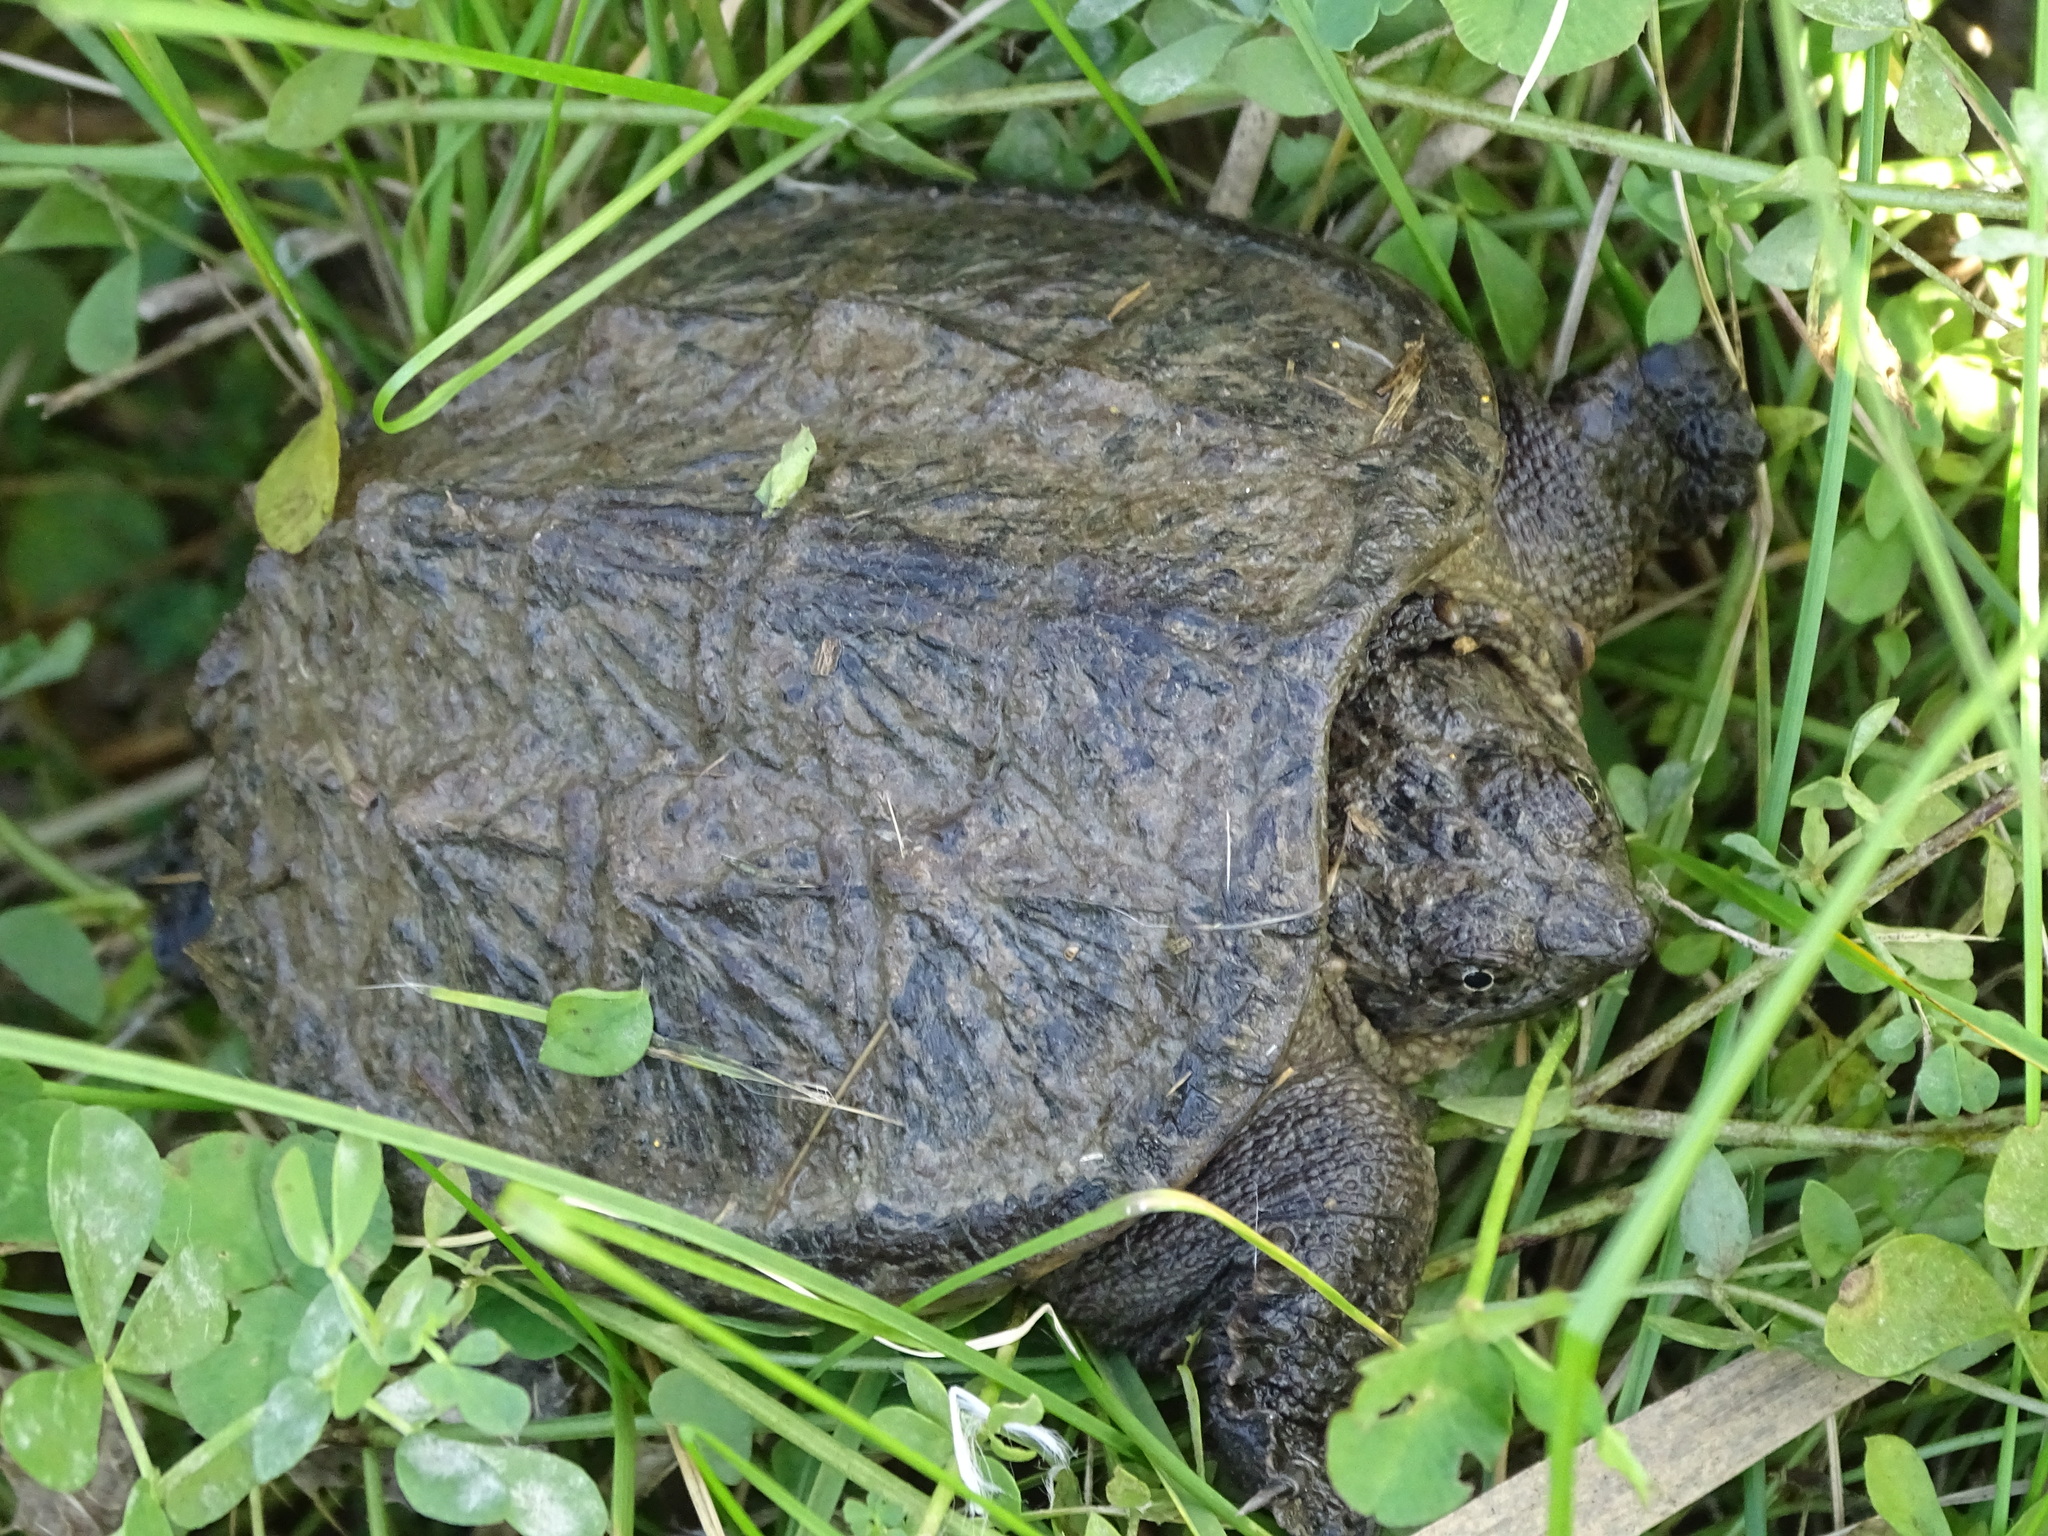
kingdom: Animalia
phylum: Chordata
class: Testudines
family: Chelydridae
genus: Chelydra
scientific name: Chelydra serpentina
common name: Common snapping turtle
